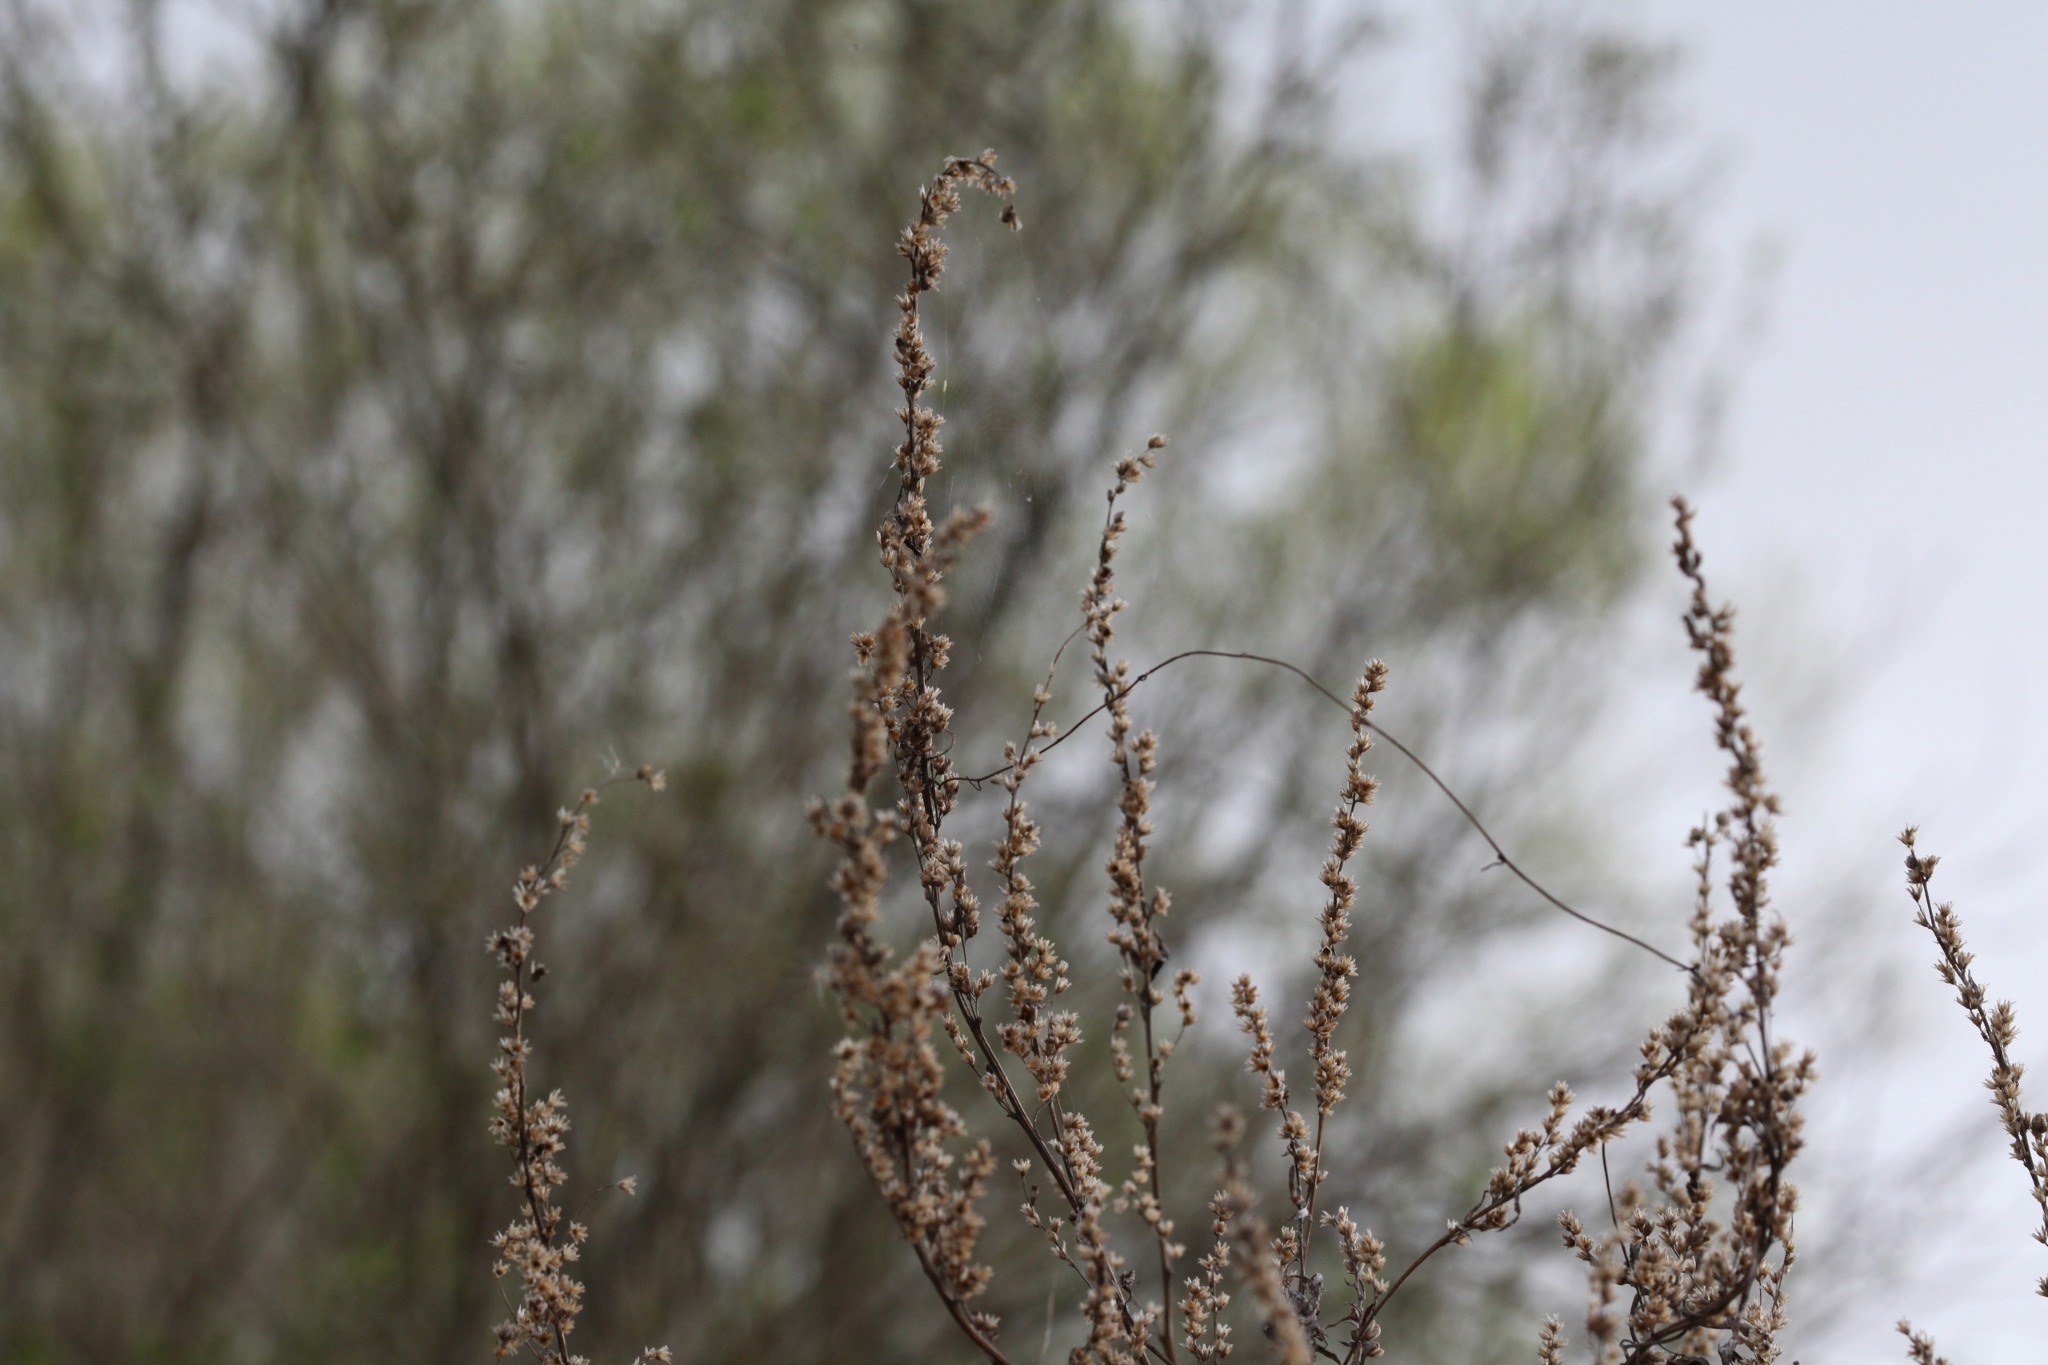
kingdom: Plantae
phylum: Tracheophyta
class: Magnoliopsida
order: Asterales
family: Asteraceae
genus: Artemisia
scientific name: Artemisia vulgaris
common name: Mugwort
